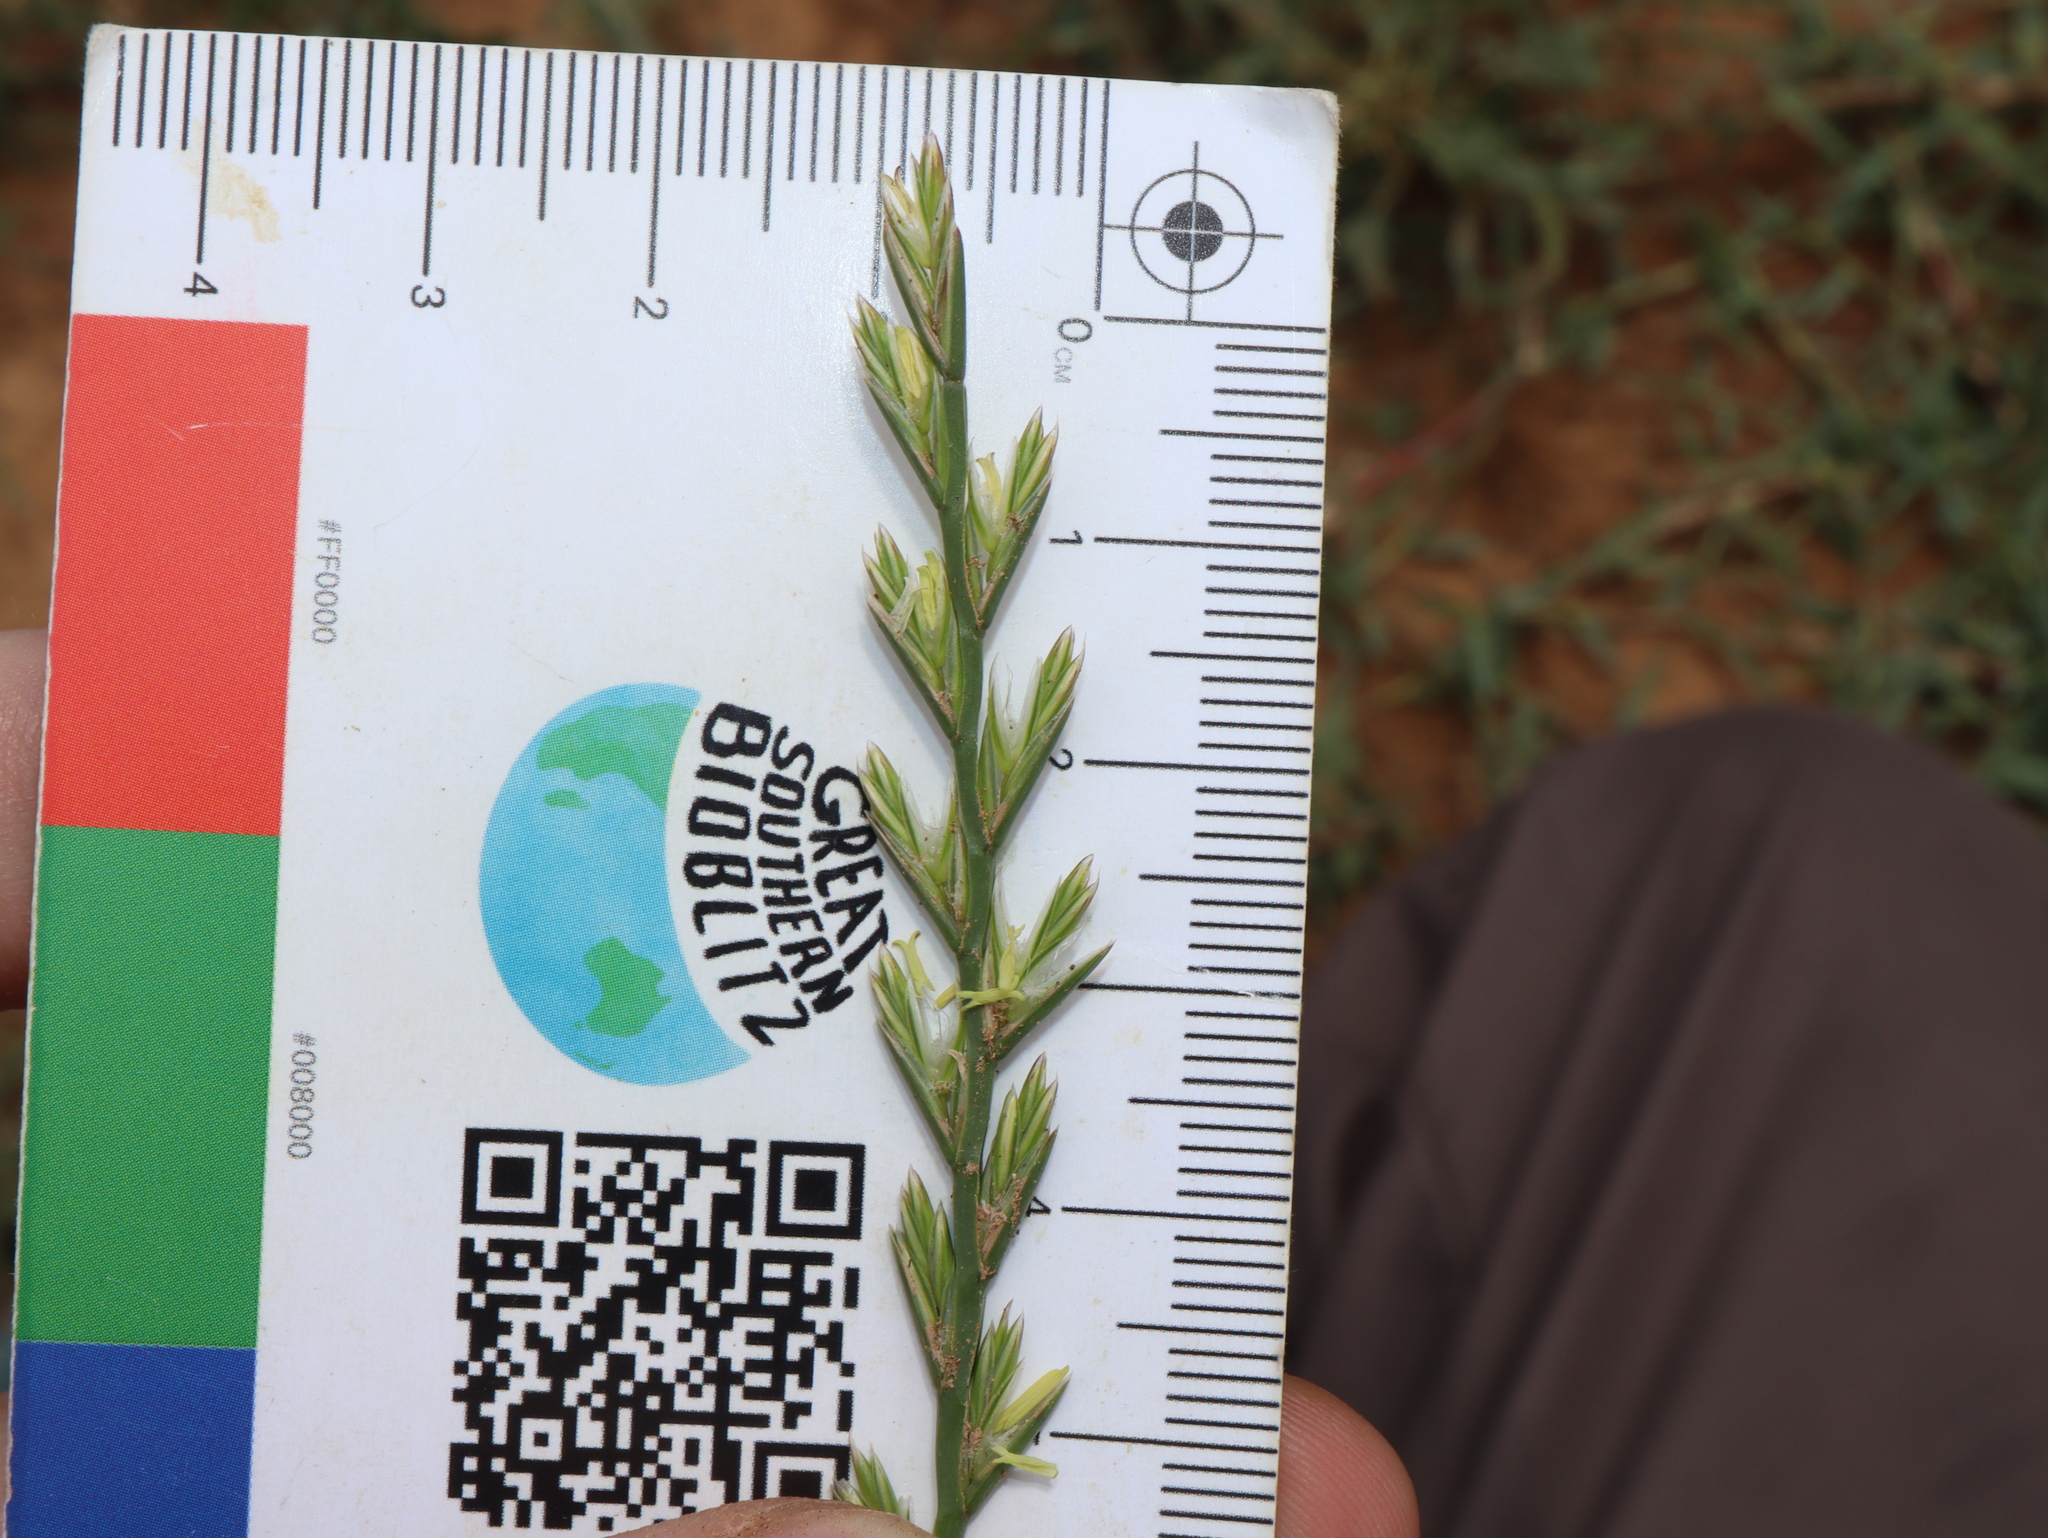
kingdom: Plantae
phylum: Tracheophyta
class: Liliopsida
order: Poales
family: Poaceae
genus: Lolium
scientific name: Lolium rigidum
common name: Wimmera ryegrass
